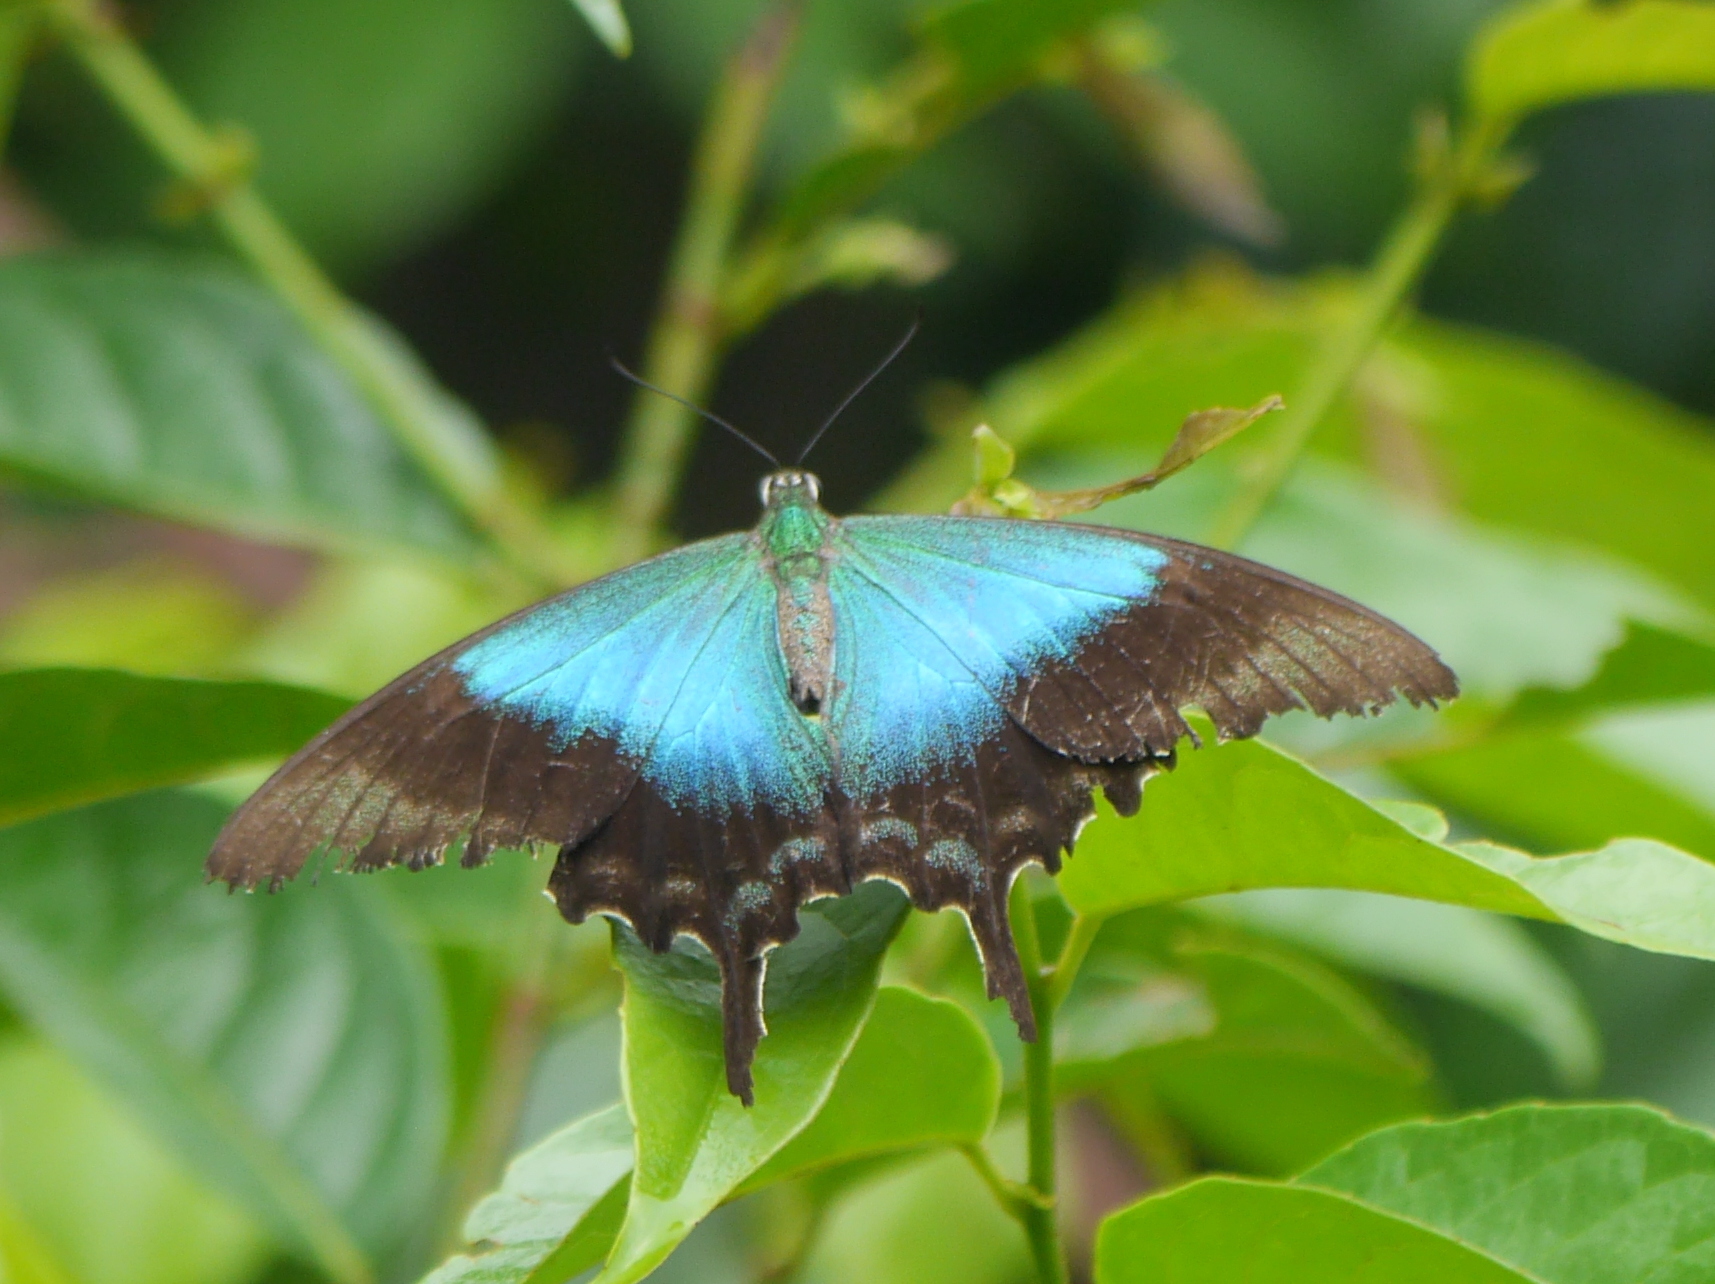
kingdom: Animalia
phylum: Arthropoda
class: Insecta
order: Lepidoptera
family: Papilionidae
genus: Papilio
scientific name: Papilio peranthus
